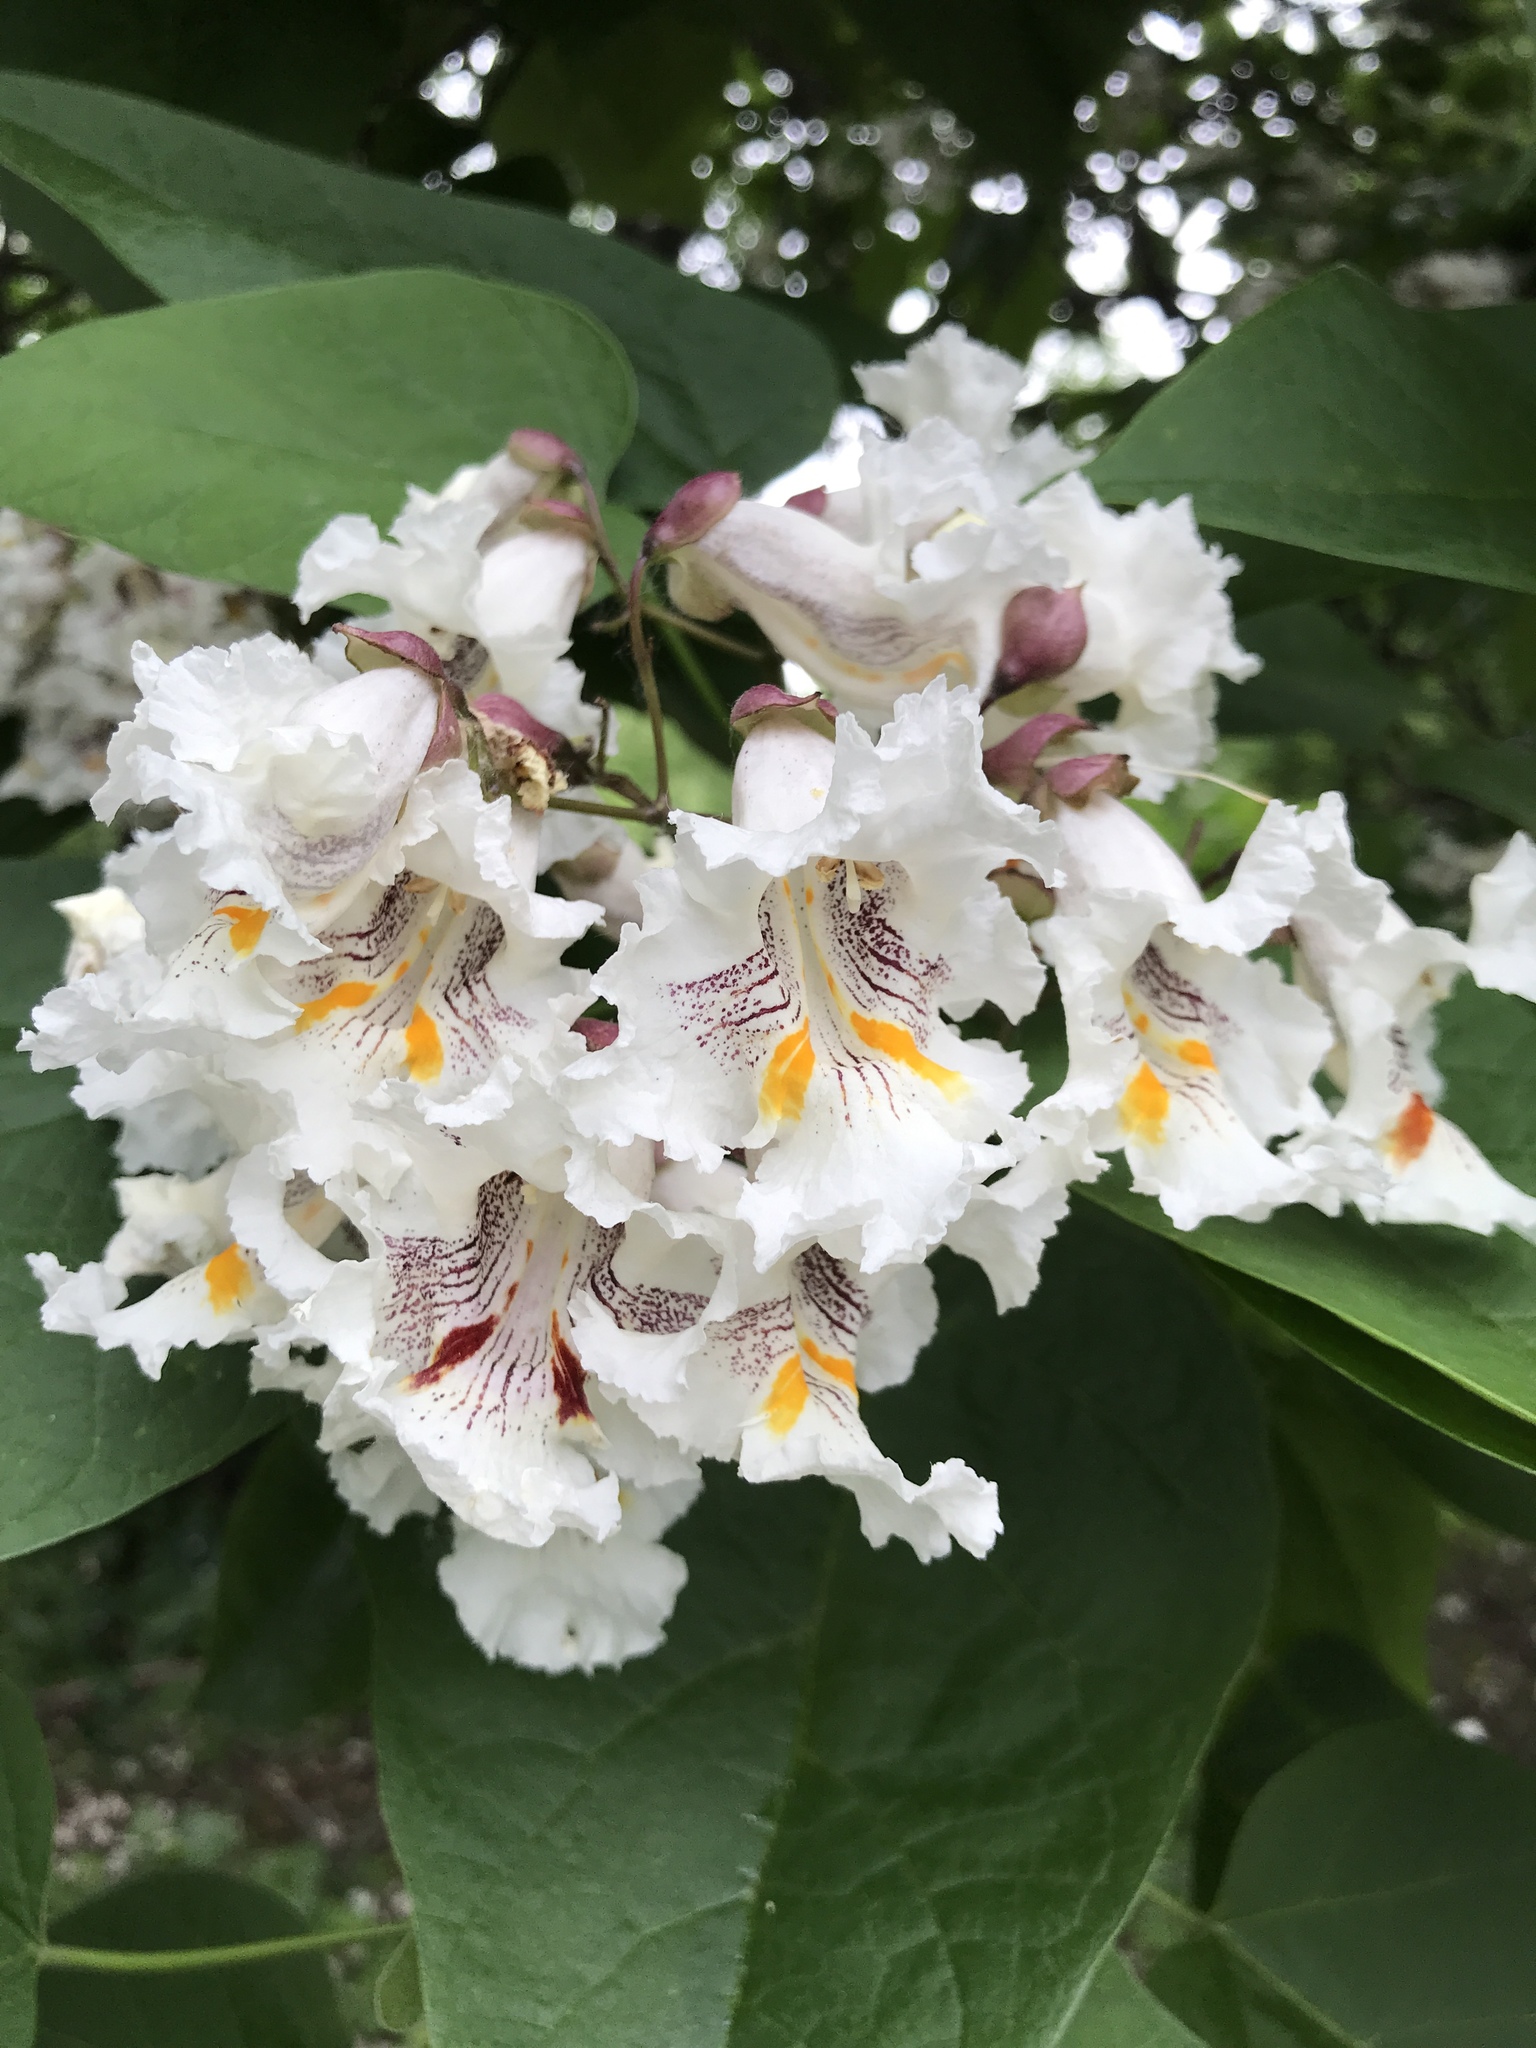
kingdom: Plantae
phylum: Tracheophyta
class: Magnoliopsida
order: Lamiales
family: Bignoniaceae
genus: Catalpa
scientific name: Catalpa speciosa
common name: Northern catalpa
